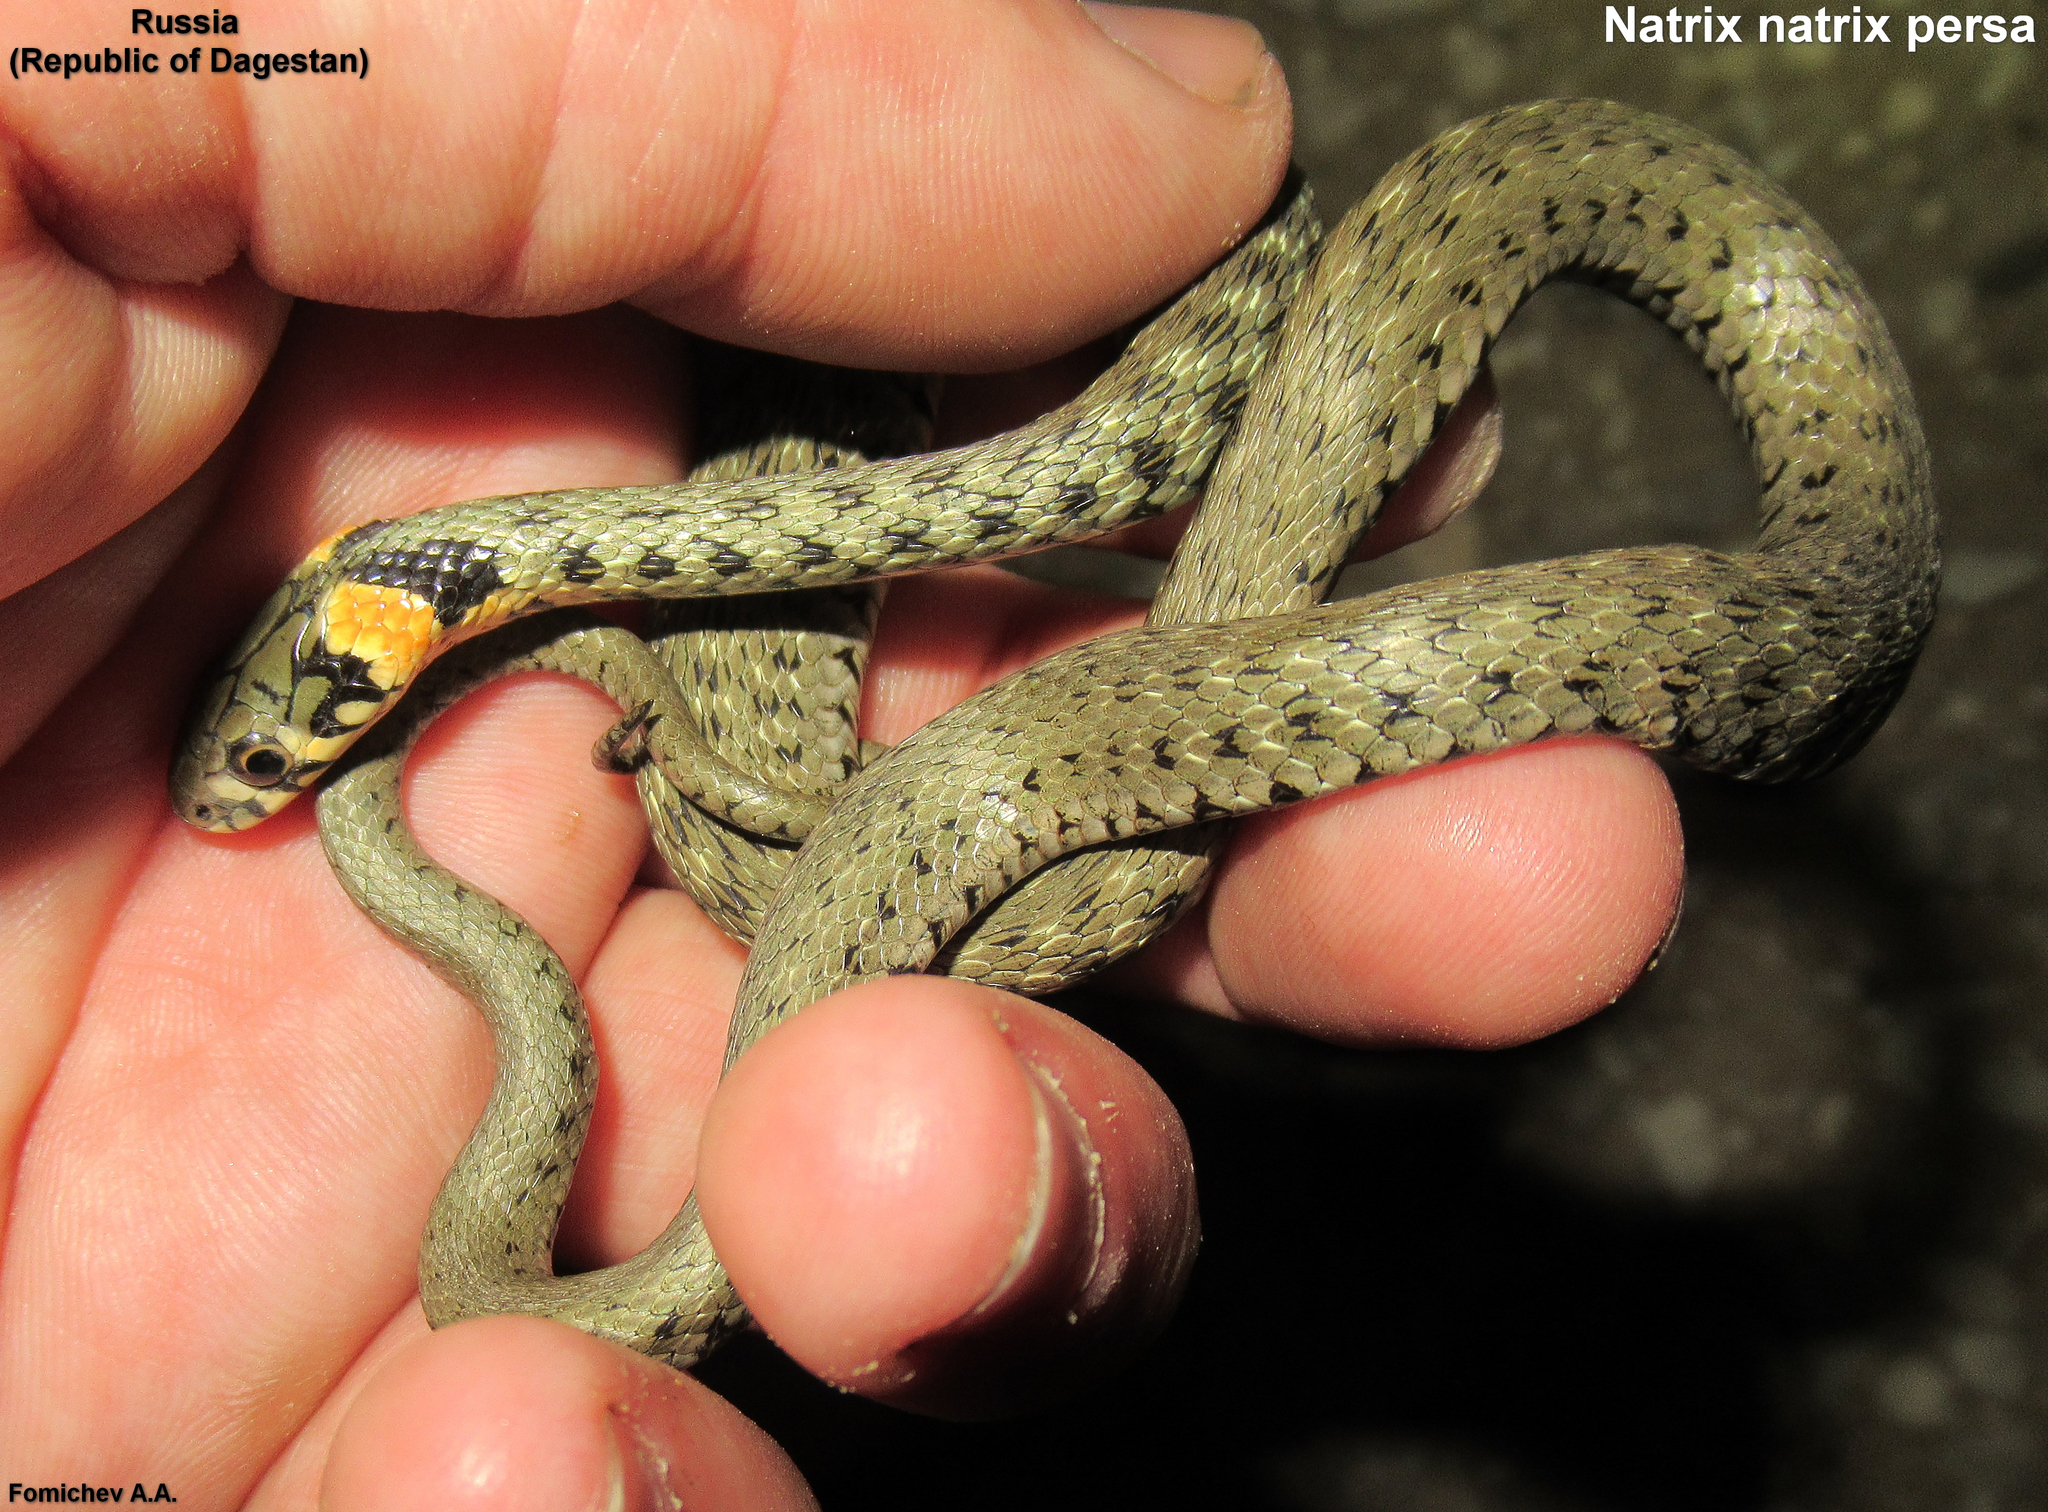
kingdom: Animalia
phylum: Chordata
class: Squamata
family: Colubridae
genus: Natrix
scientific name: Natrix natrix
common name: Grass snake
